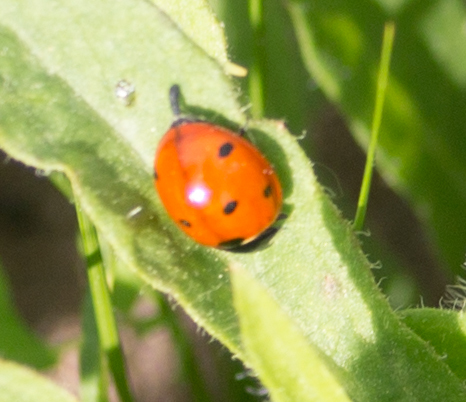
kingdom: Animalia
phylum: Arthropoda
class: Insecta
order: Coleoptera
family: Coccinellidae
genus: Coccinella
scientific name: Coccinella septempunctata
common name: Sevenspotted lady beetle
